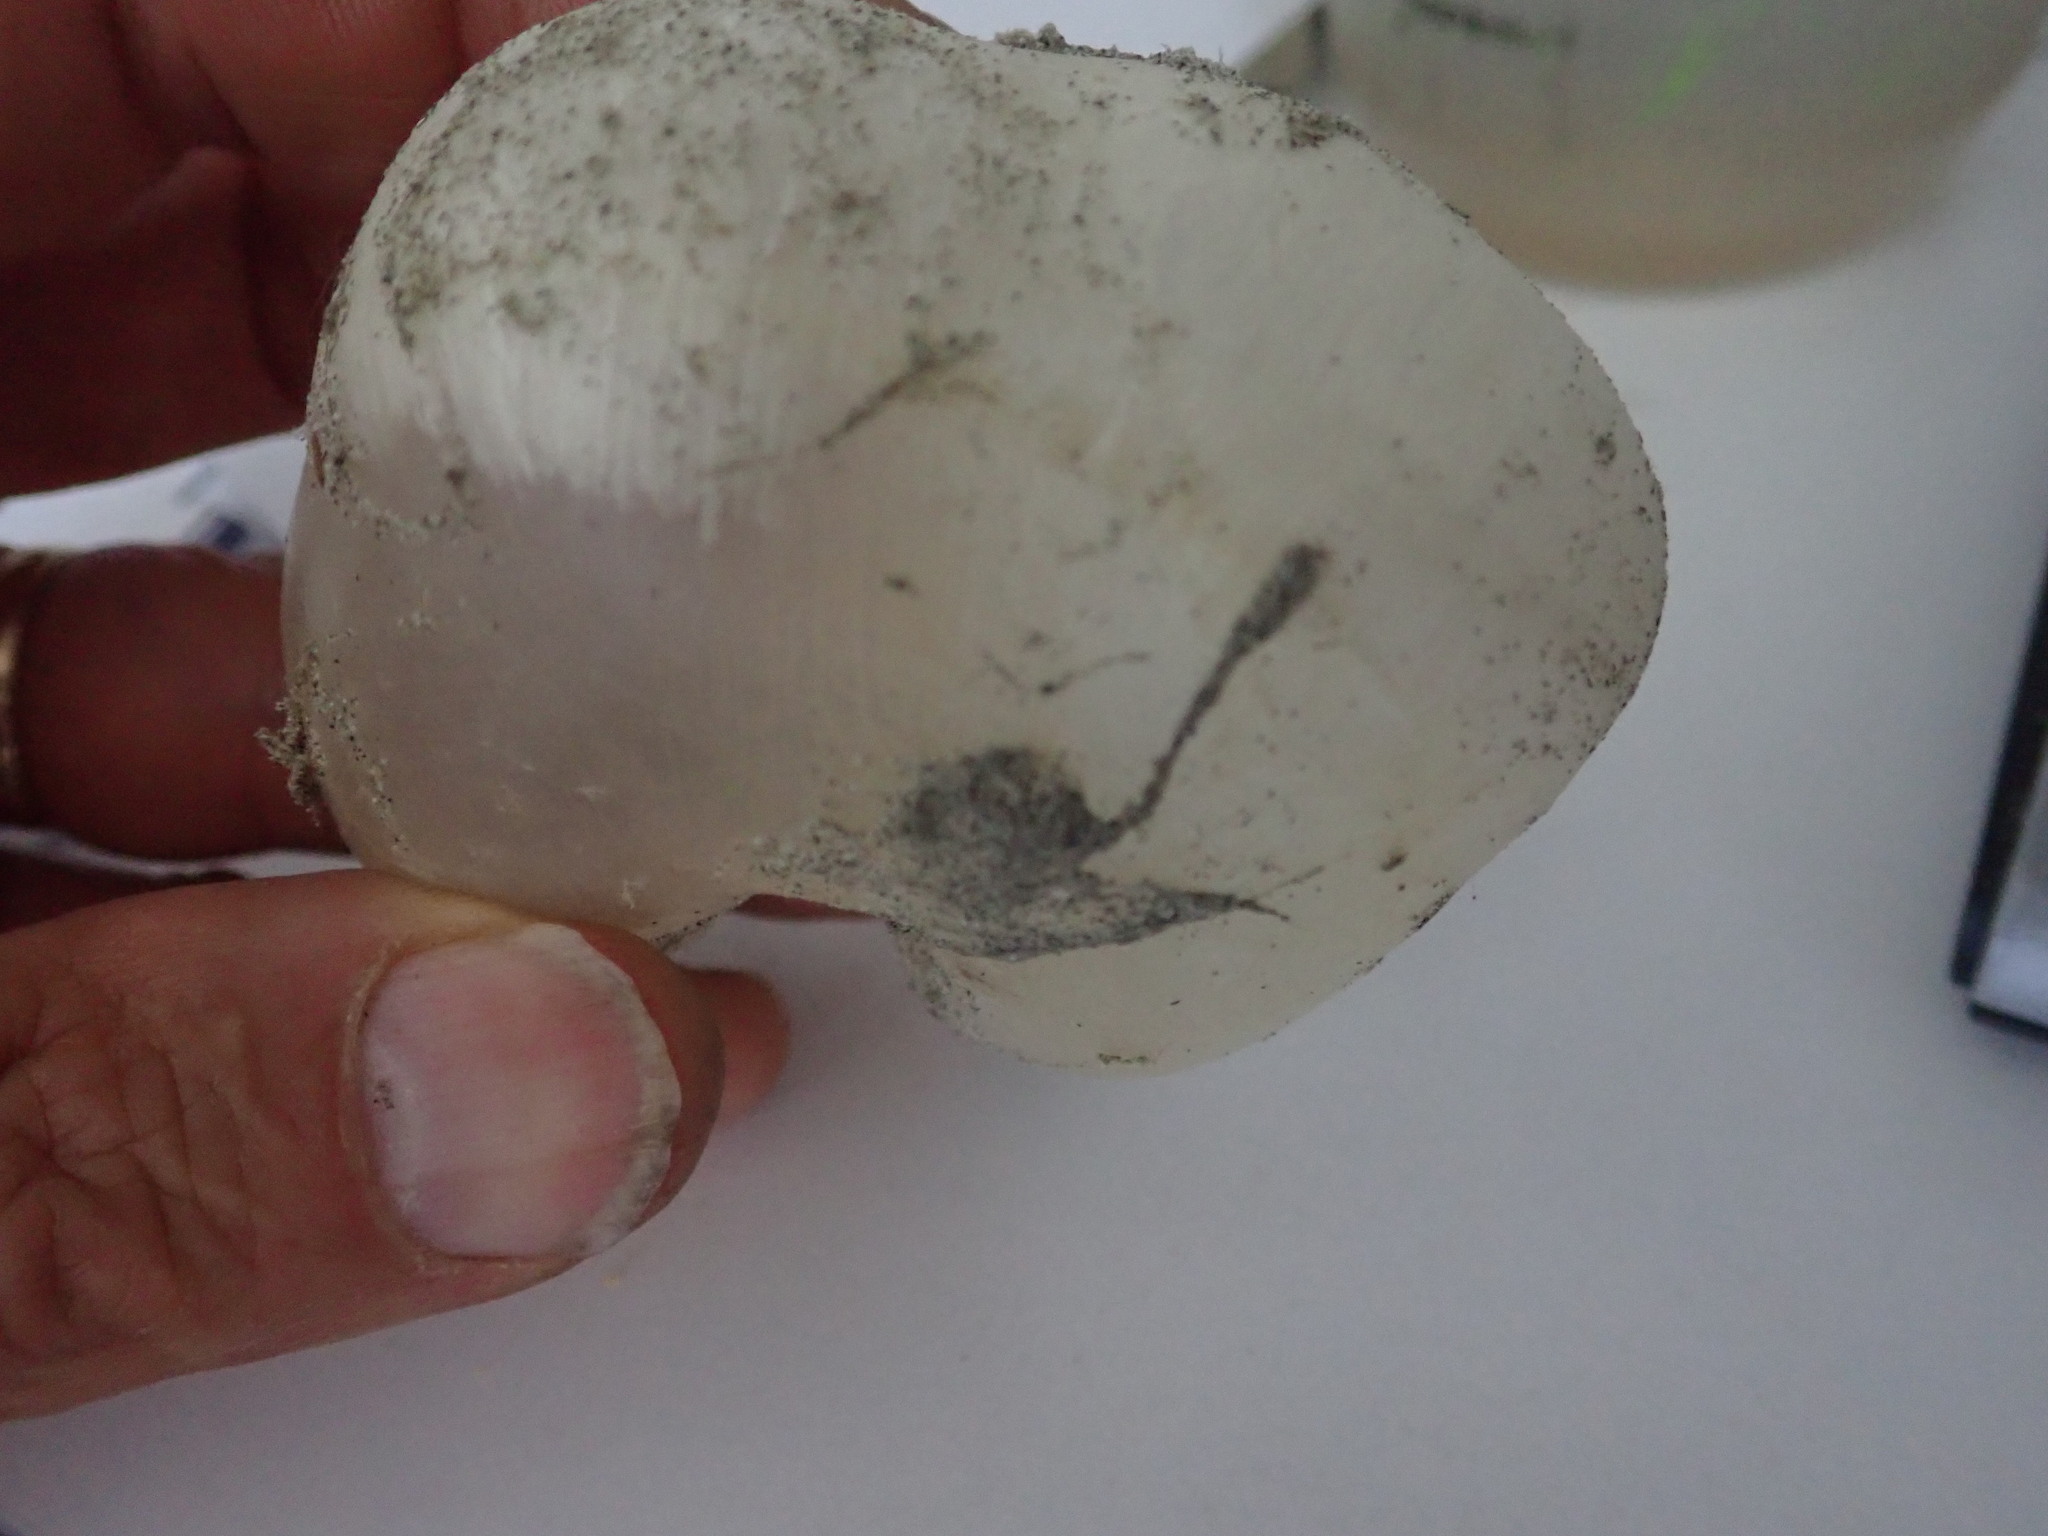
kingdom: Animalia
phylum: Chordata
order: Tetraodontiformes
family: Diodontidae
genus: Allomycterus
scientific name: Allomycterus pilatus
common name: No common name
